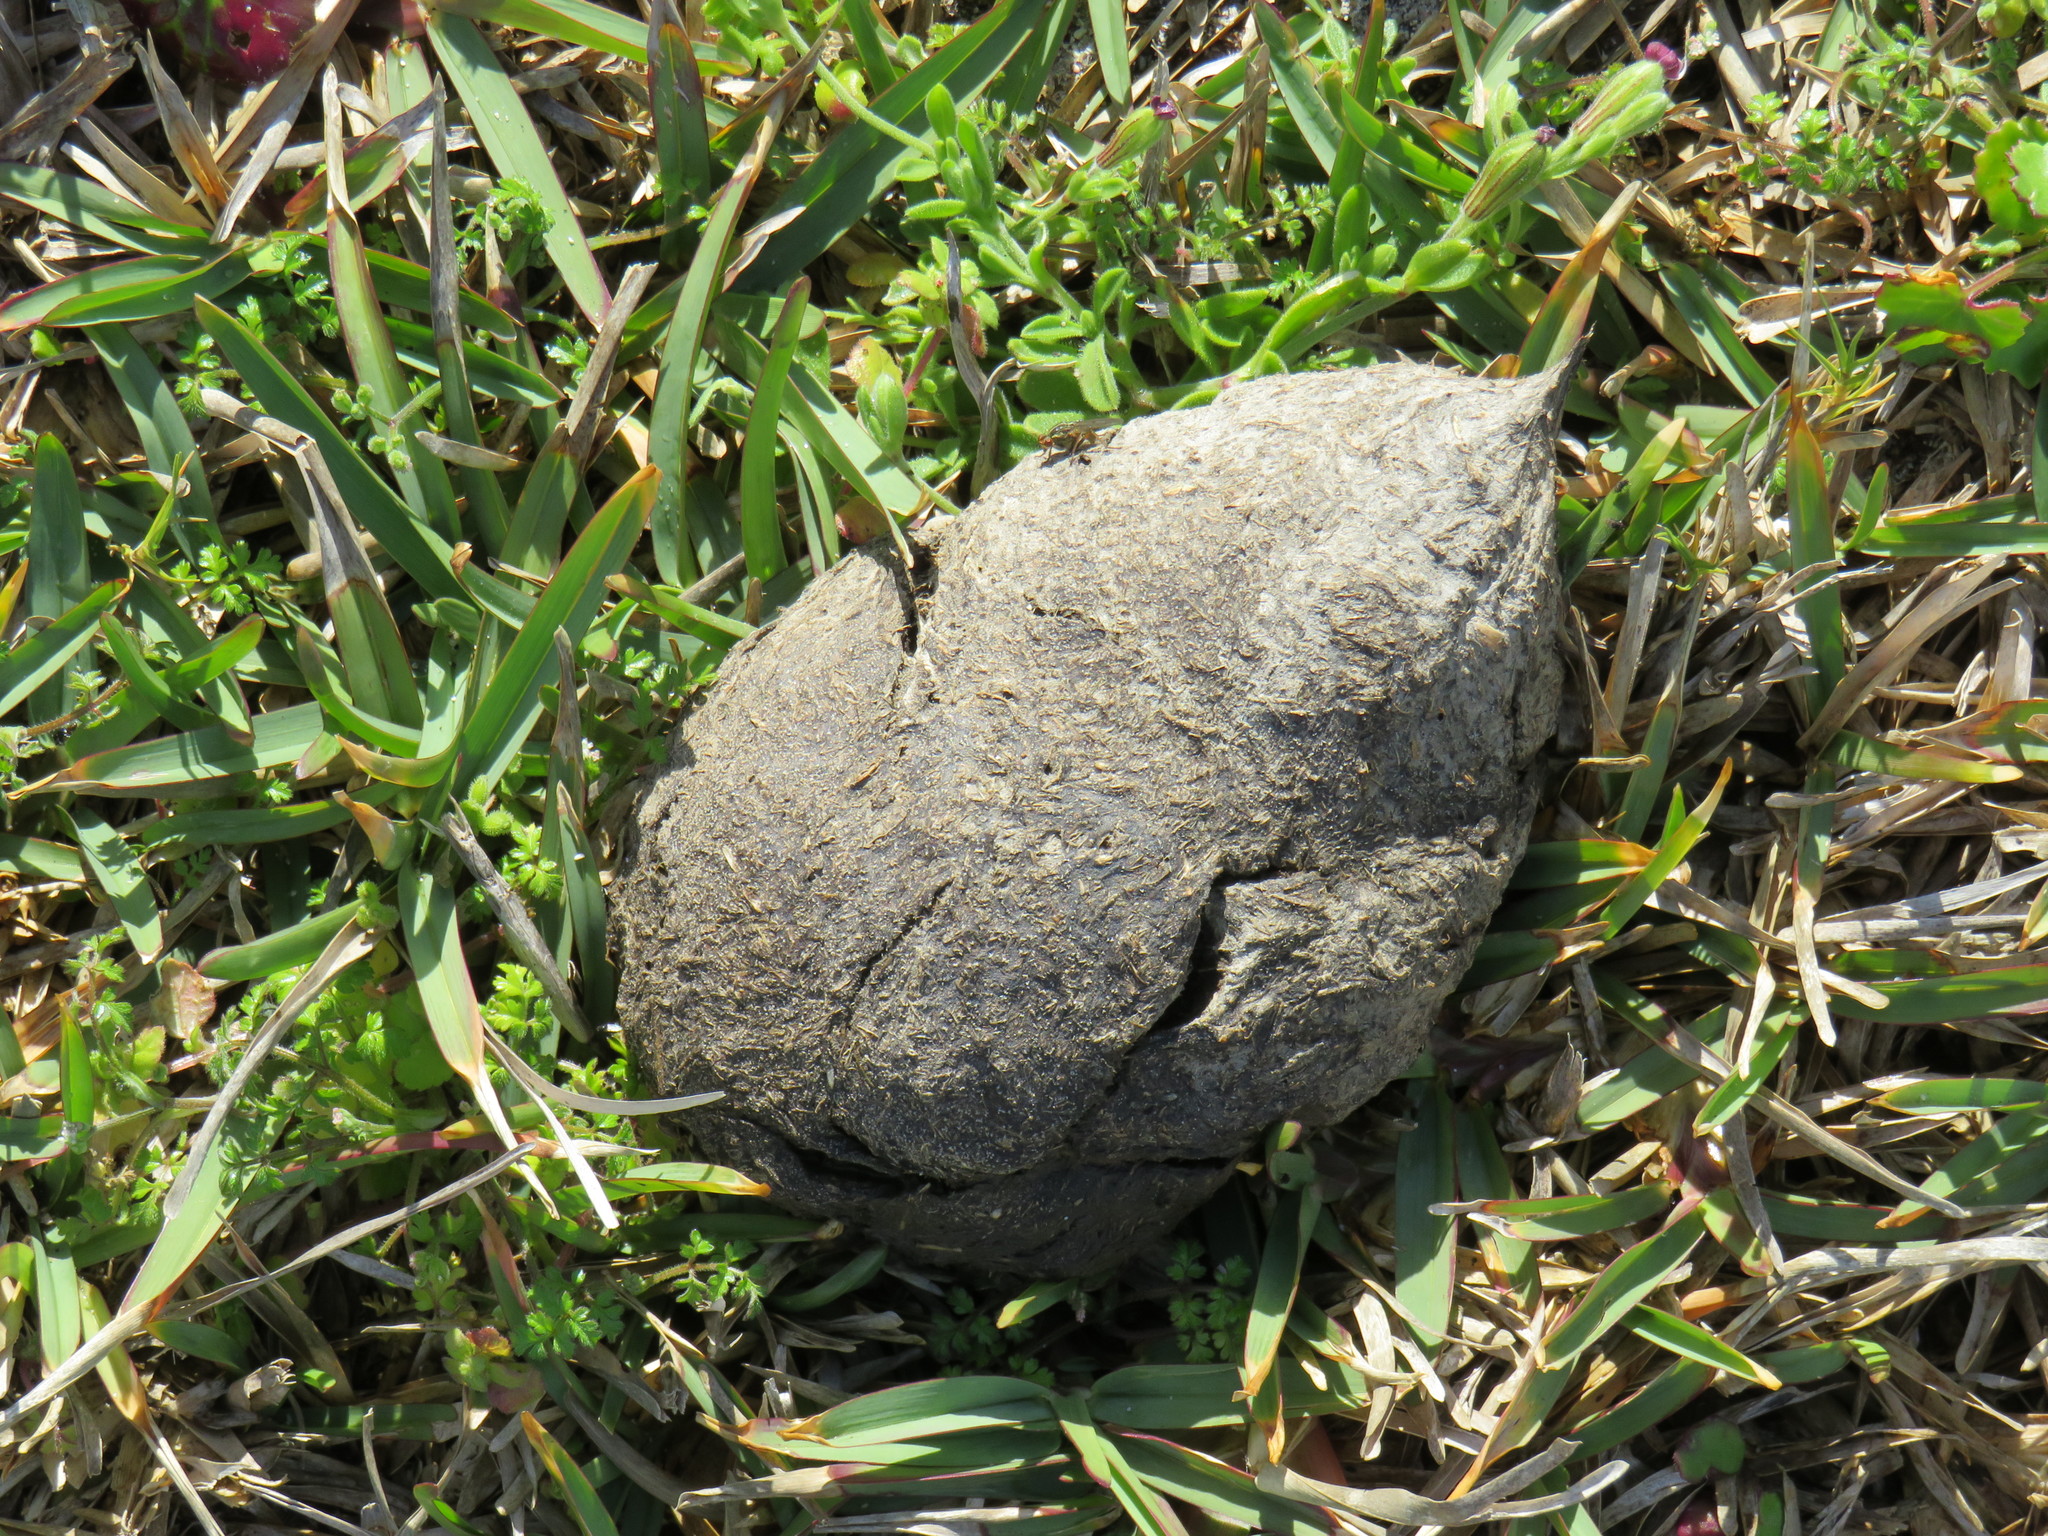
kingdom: Animalia
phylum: Chordata
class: Aves
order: Struthioniformes
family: Struthionidae
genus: Struthio
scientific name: Struthio camelus
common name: Common ostrich
